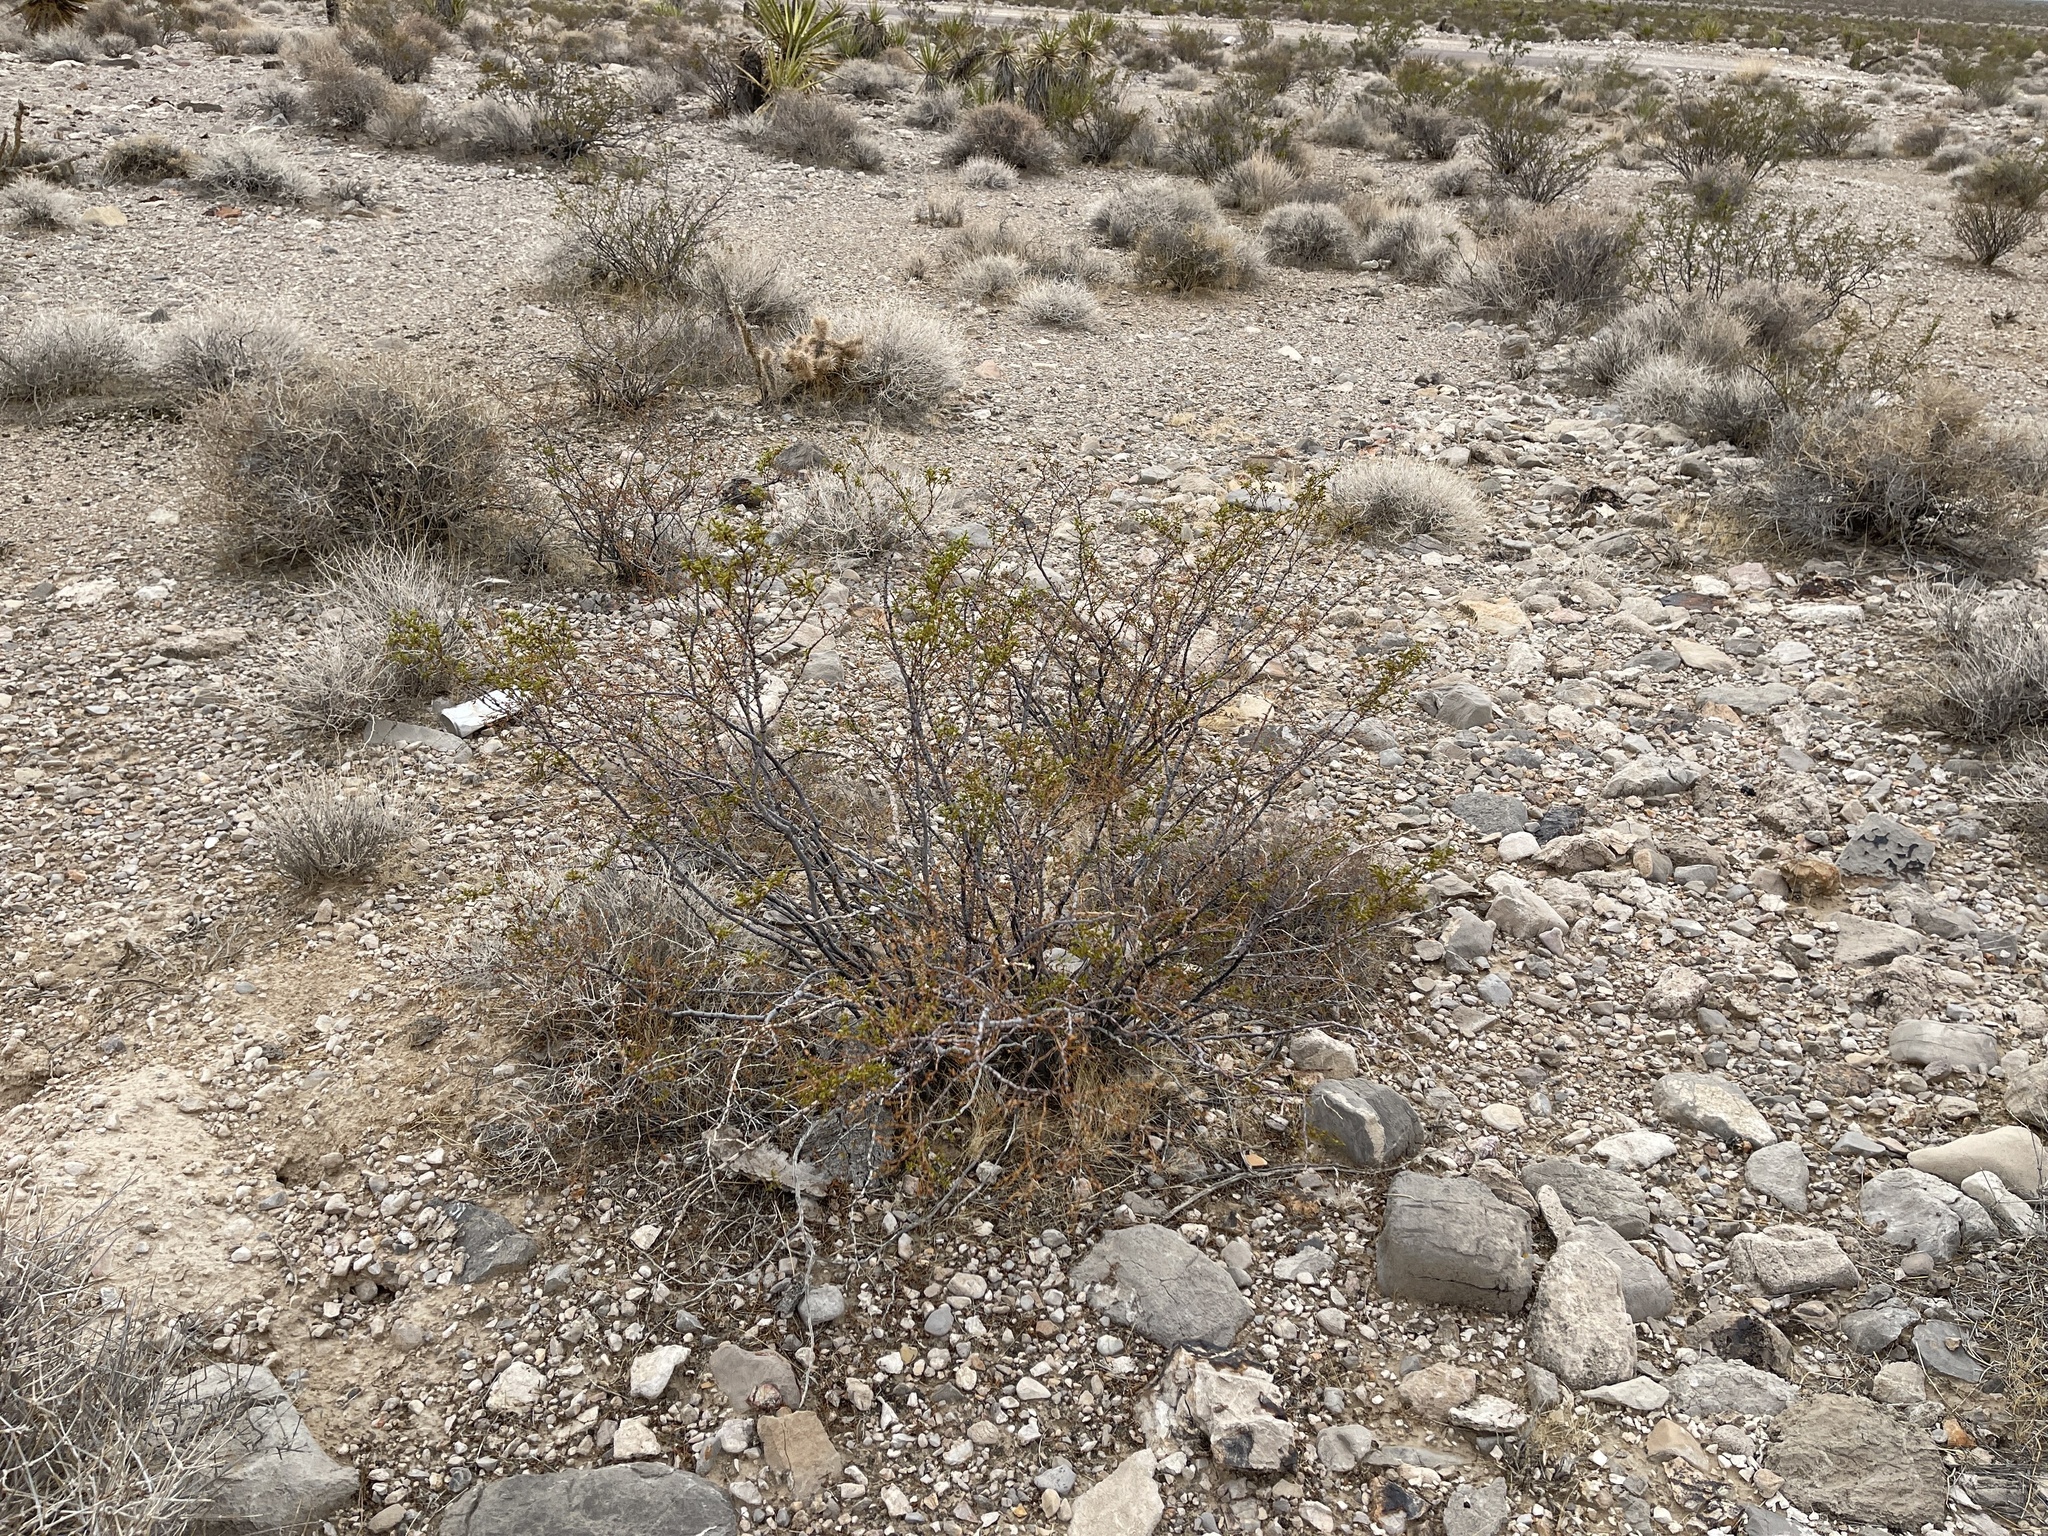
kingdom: Plantae
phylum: Tracheophyta
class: Magnoliopsida
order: Zygophyllales
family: Zygophyllaceae
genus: Larrea
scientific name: Larrea tridentata
